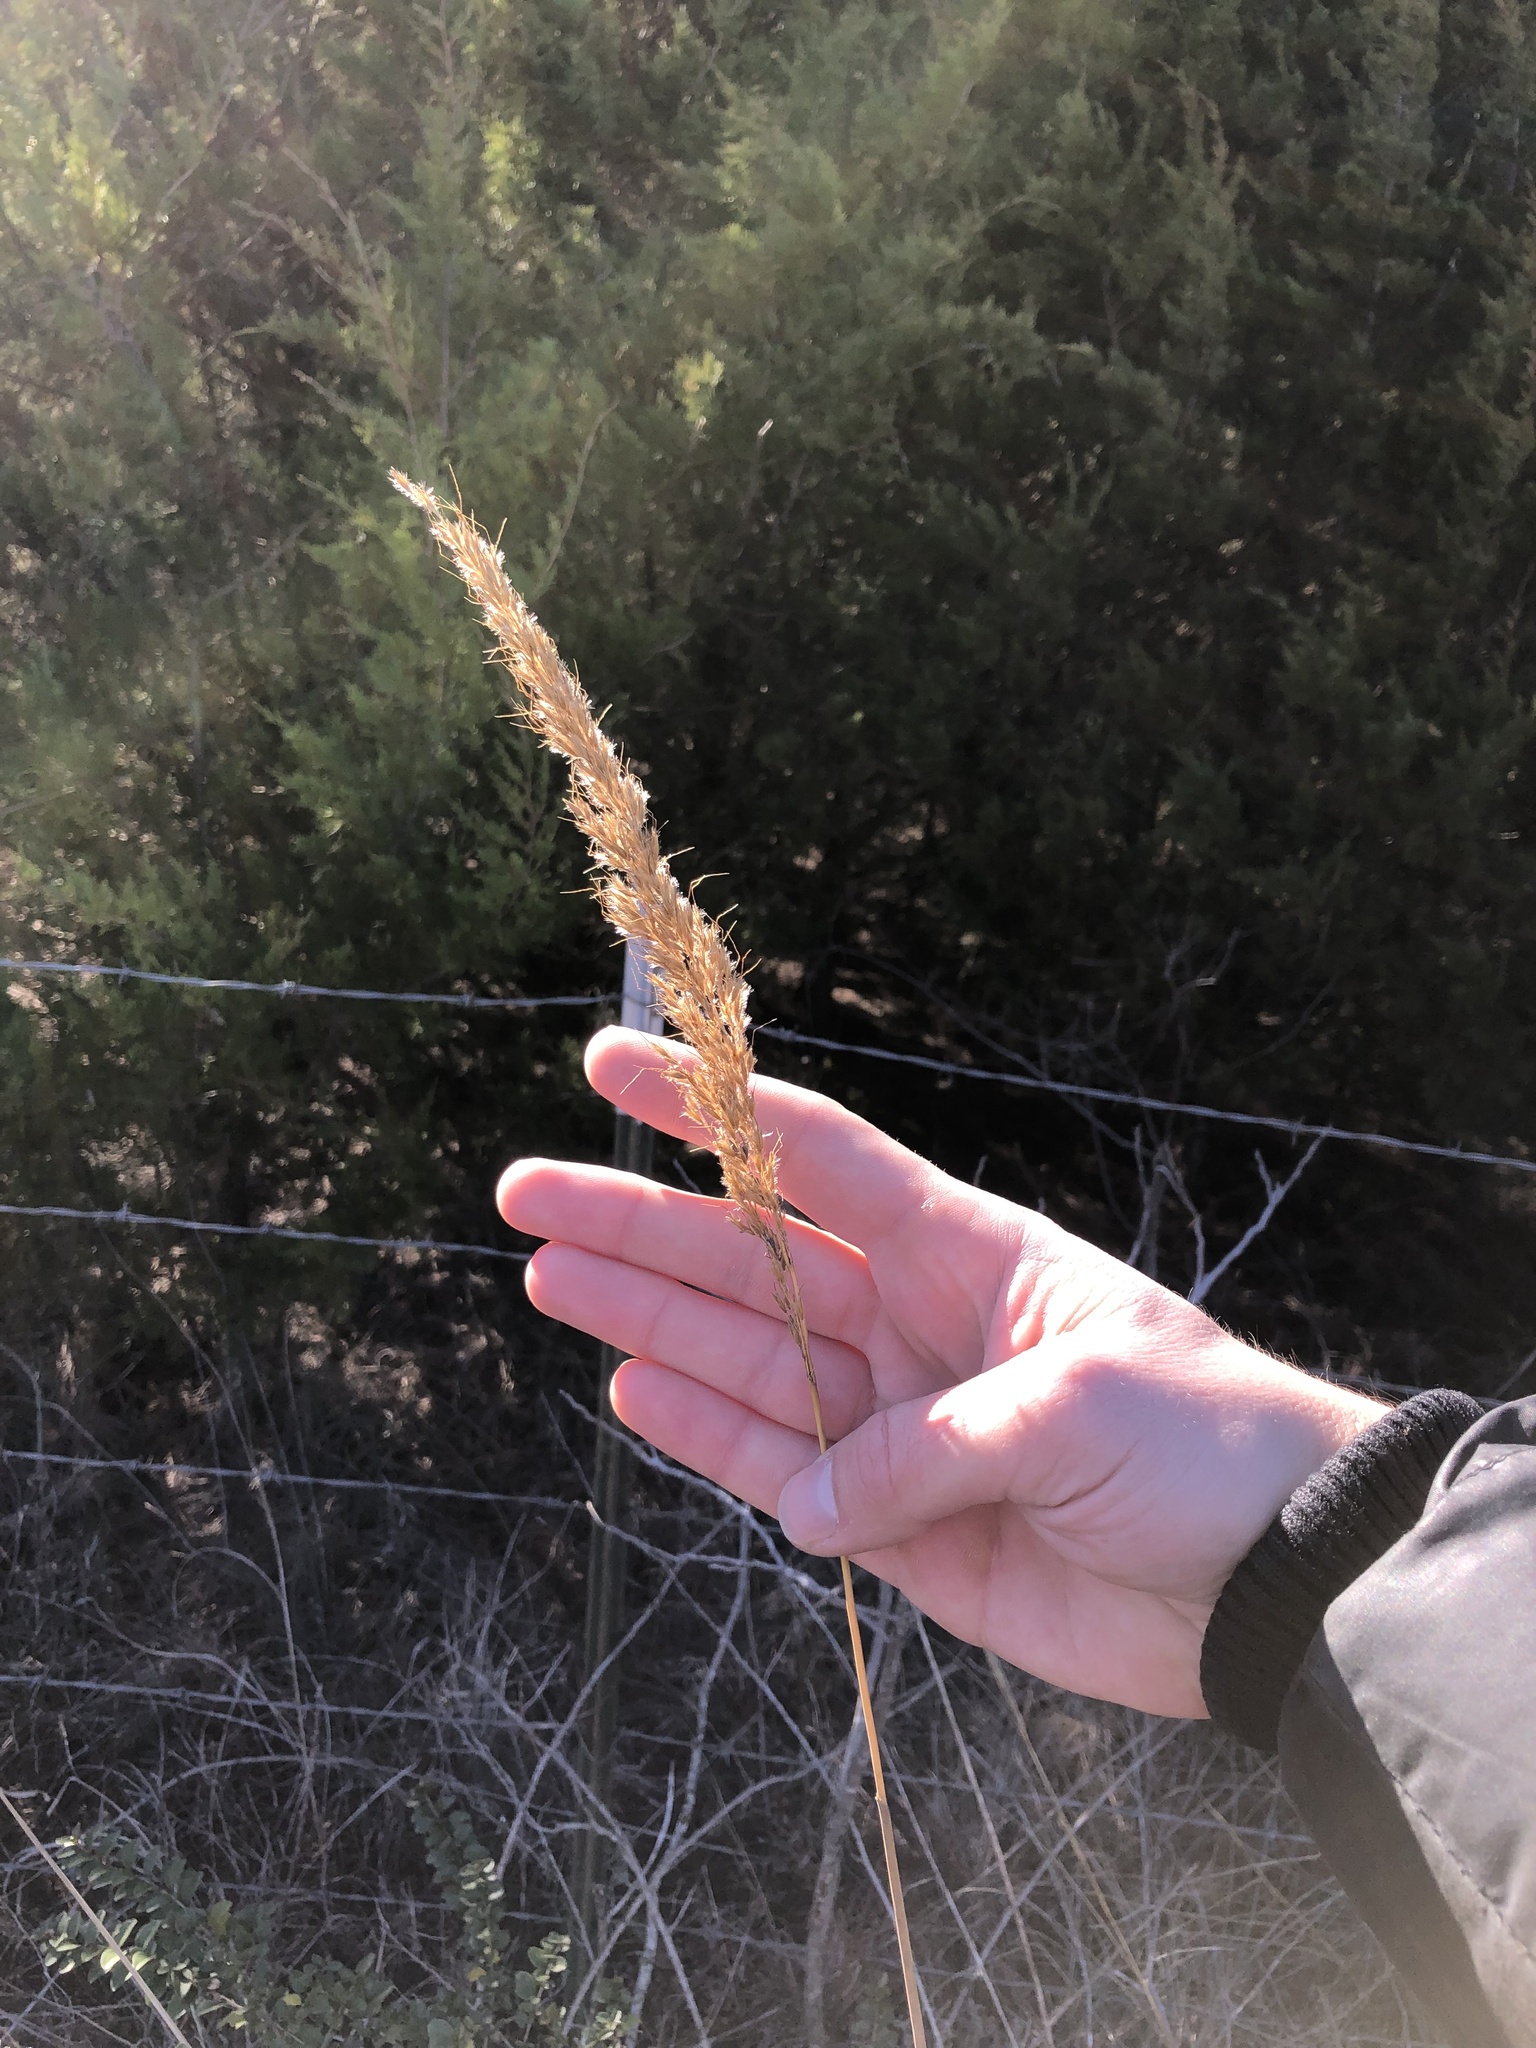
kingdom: Plantae
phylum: Tracheophyta
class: Liliopsida
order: Poales
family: Poaceae
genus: Sorghastrum
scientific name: Sorghastrum nutans
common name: Indian grass
